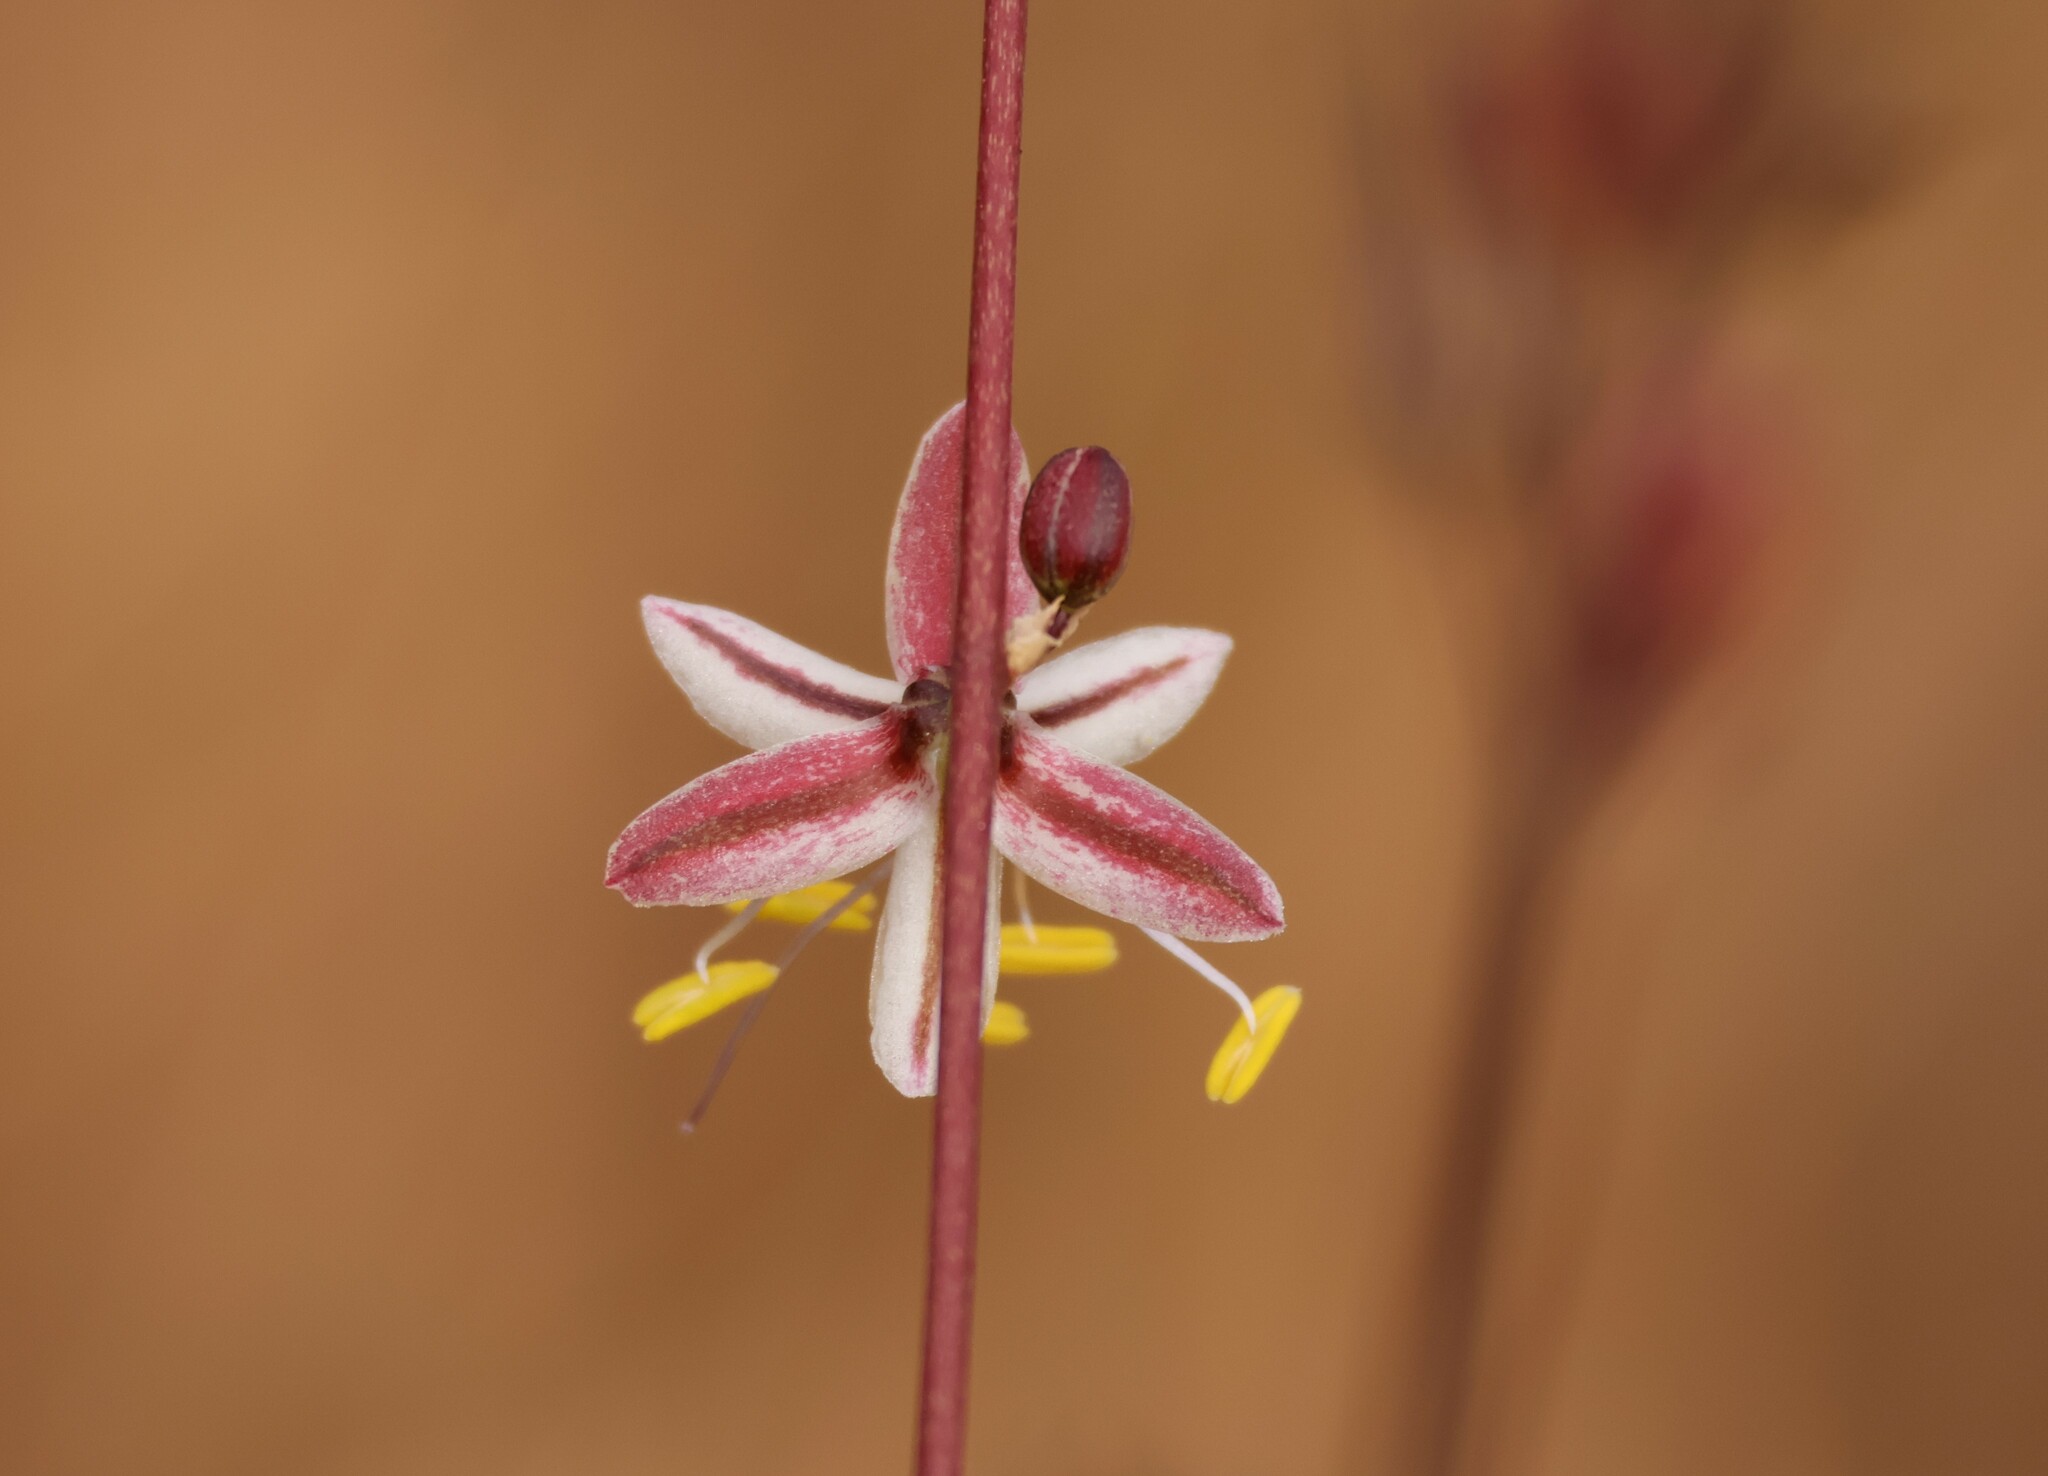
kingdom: Plantae
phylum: Tracheophyta
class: Liliopsida
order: Asparagales
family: Asparagaceae
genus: Hooveria
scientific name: Hooveria parviflora
